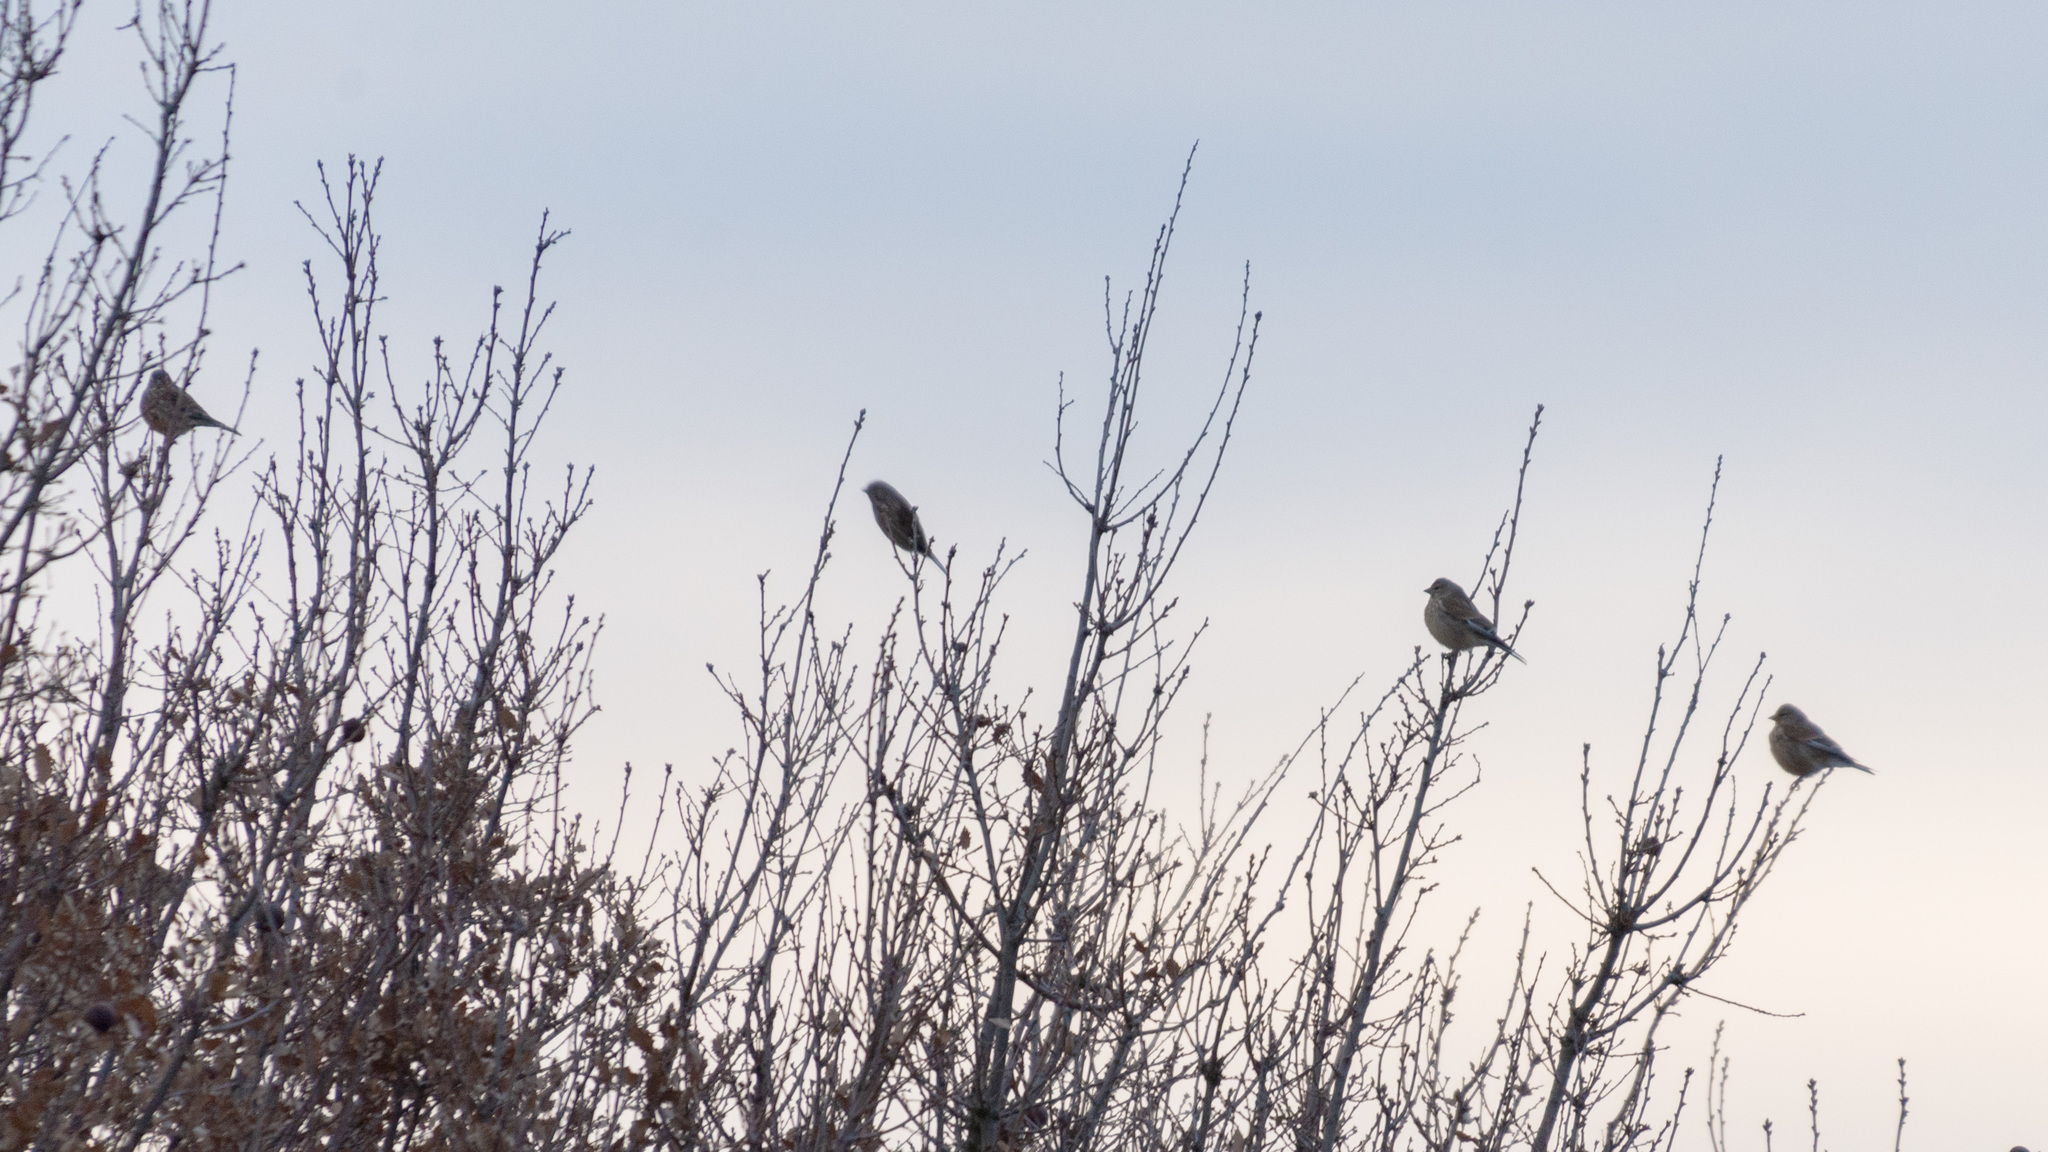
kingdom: Animalia
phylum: Chordata
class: Aves
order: Passeriformes
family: Fringillidae
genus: Linaria
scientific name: Linaria cannabina
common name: Common linnet
